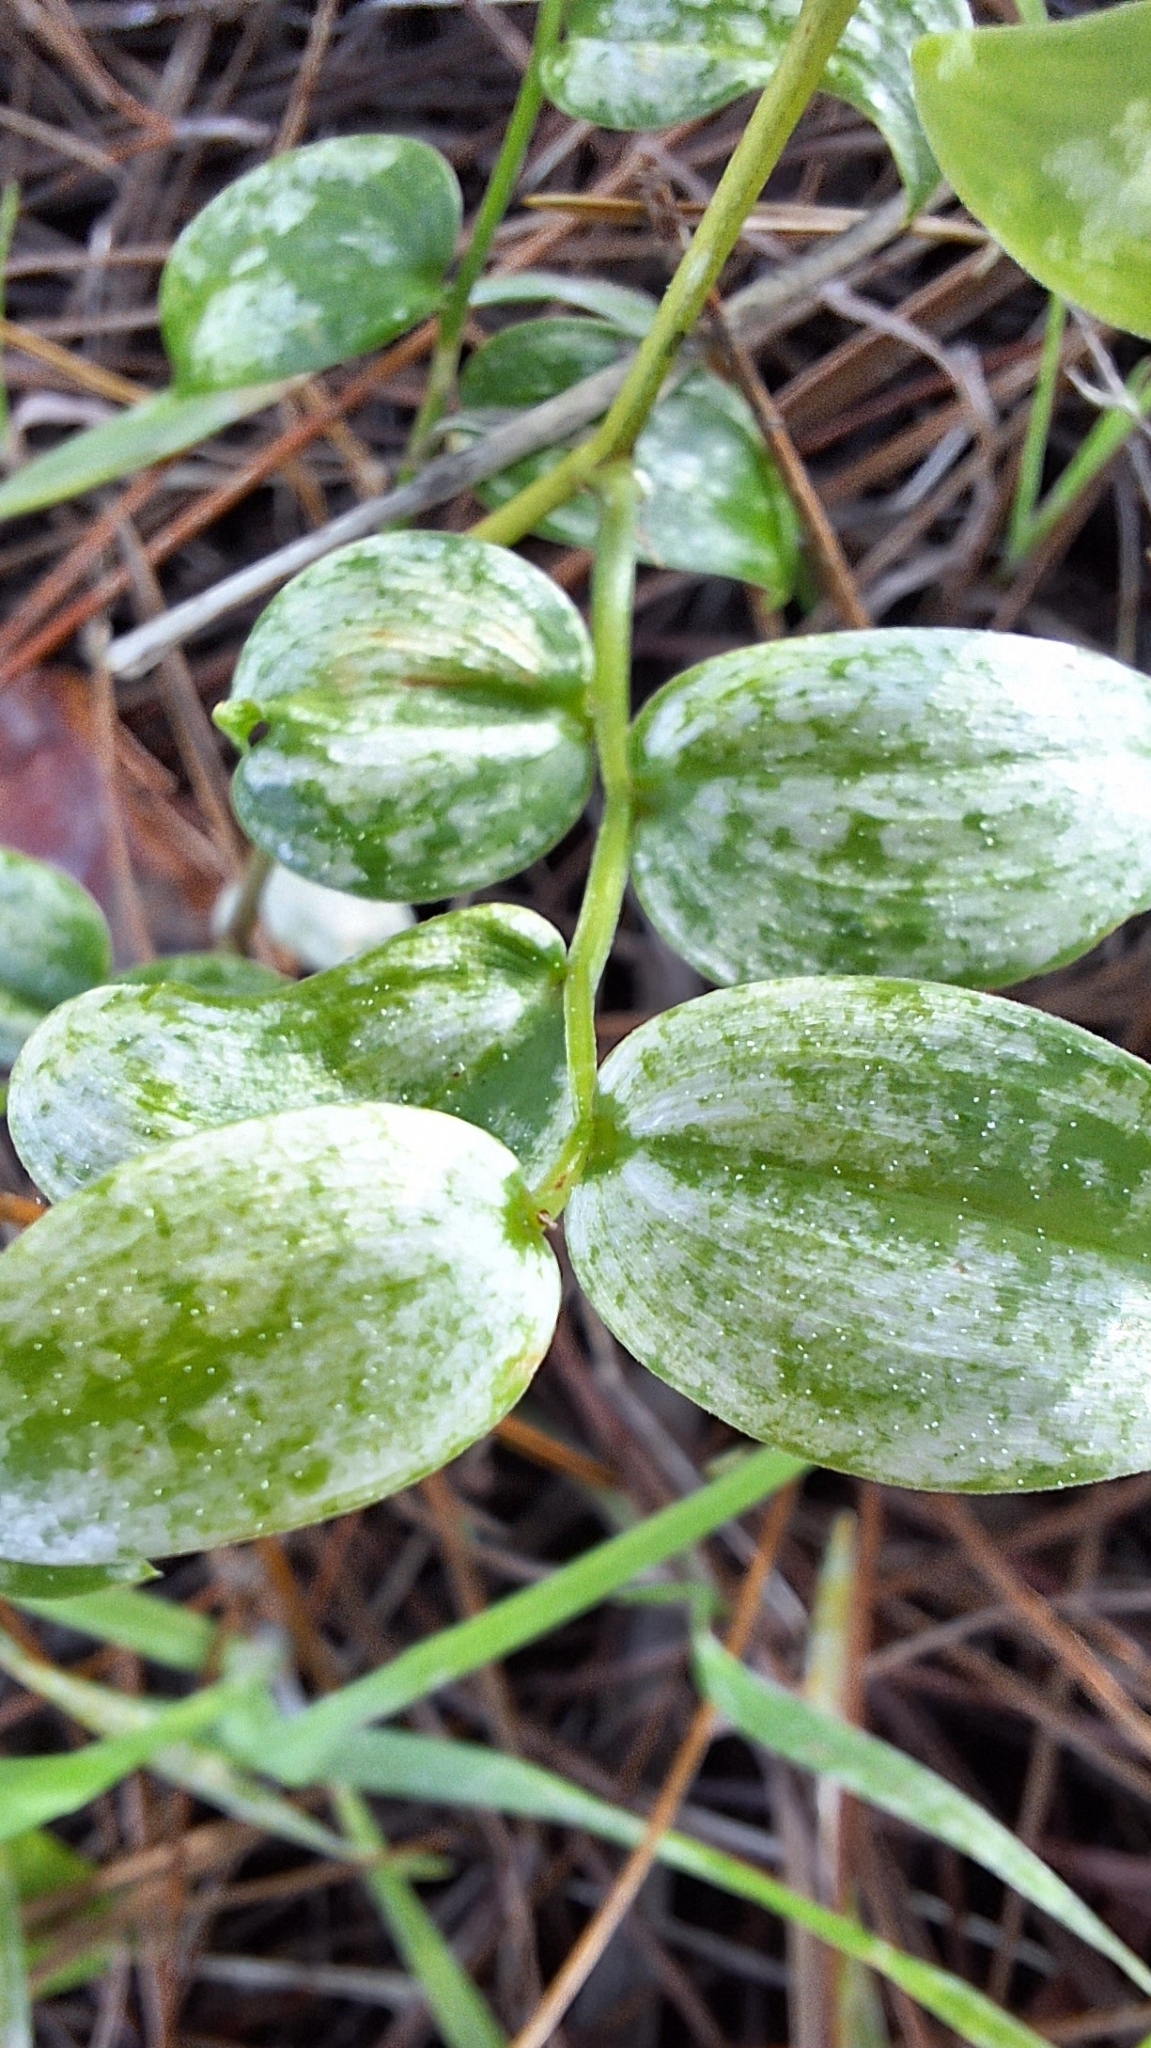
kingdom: Animalia
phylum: Arthropoda
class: Insecta
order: Hemiptera
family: Cicadellidae
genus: Zygina
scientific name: Zygina
